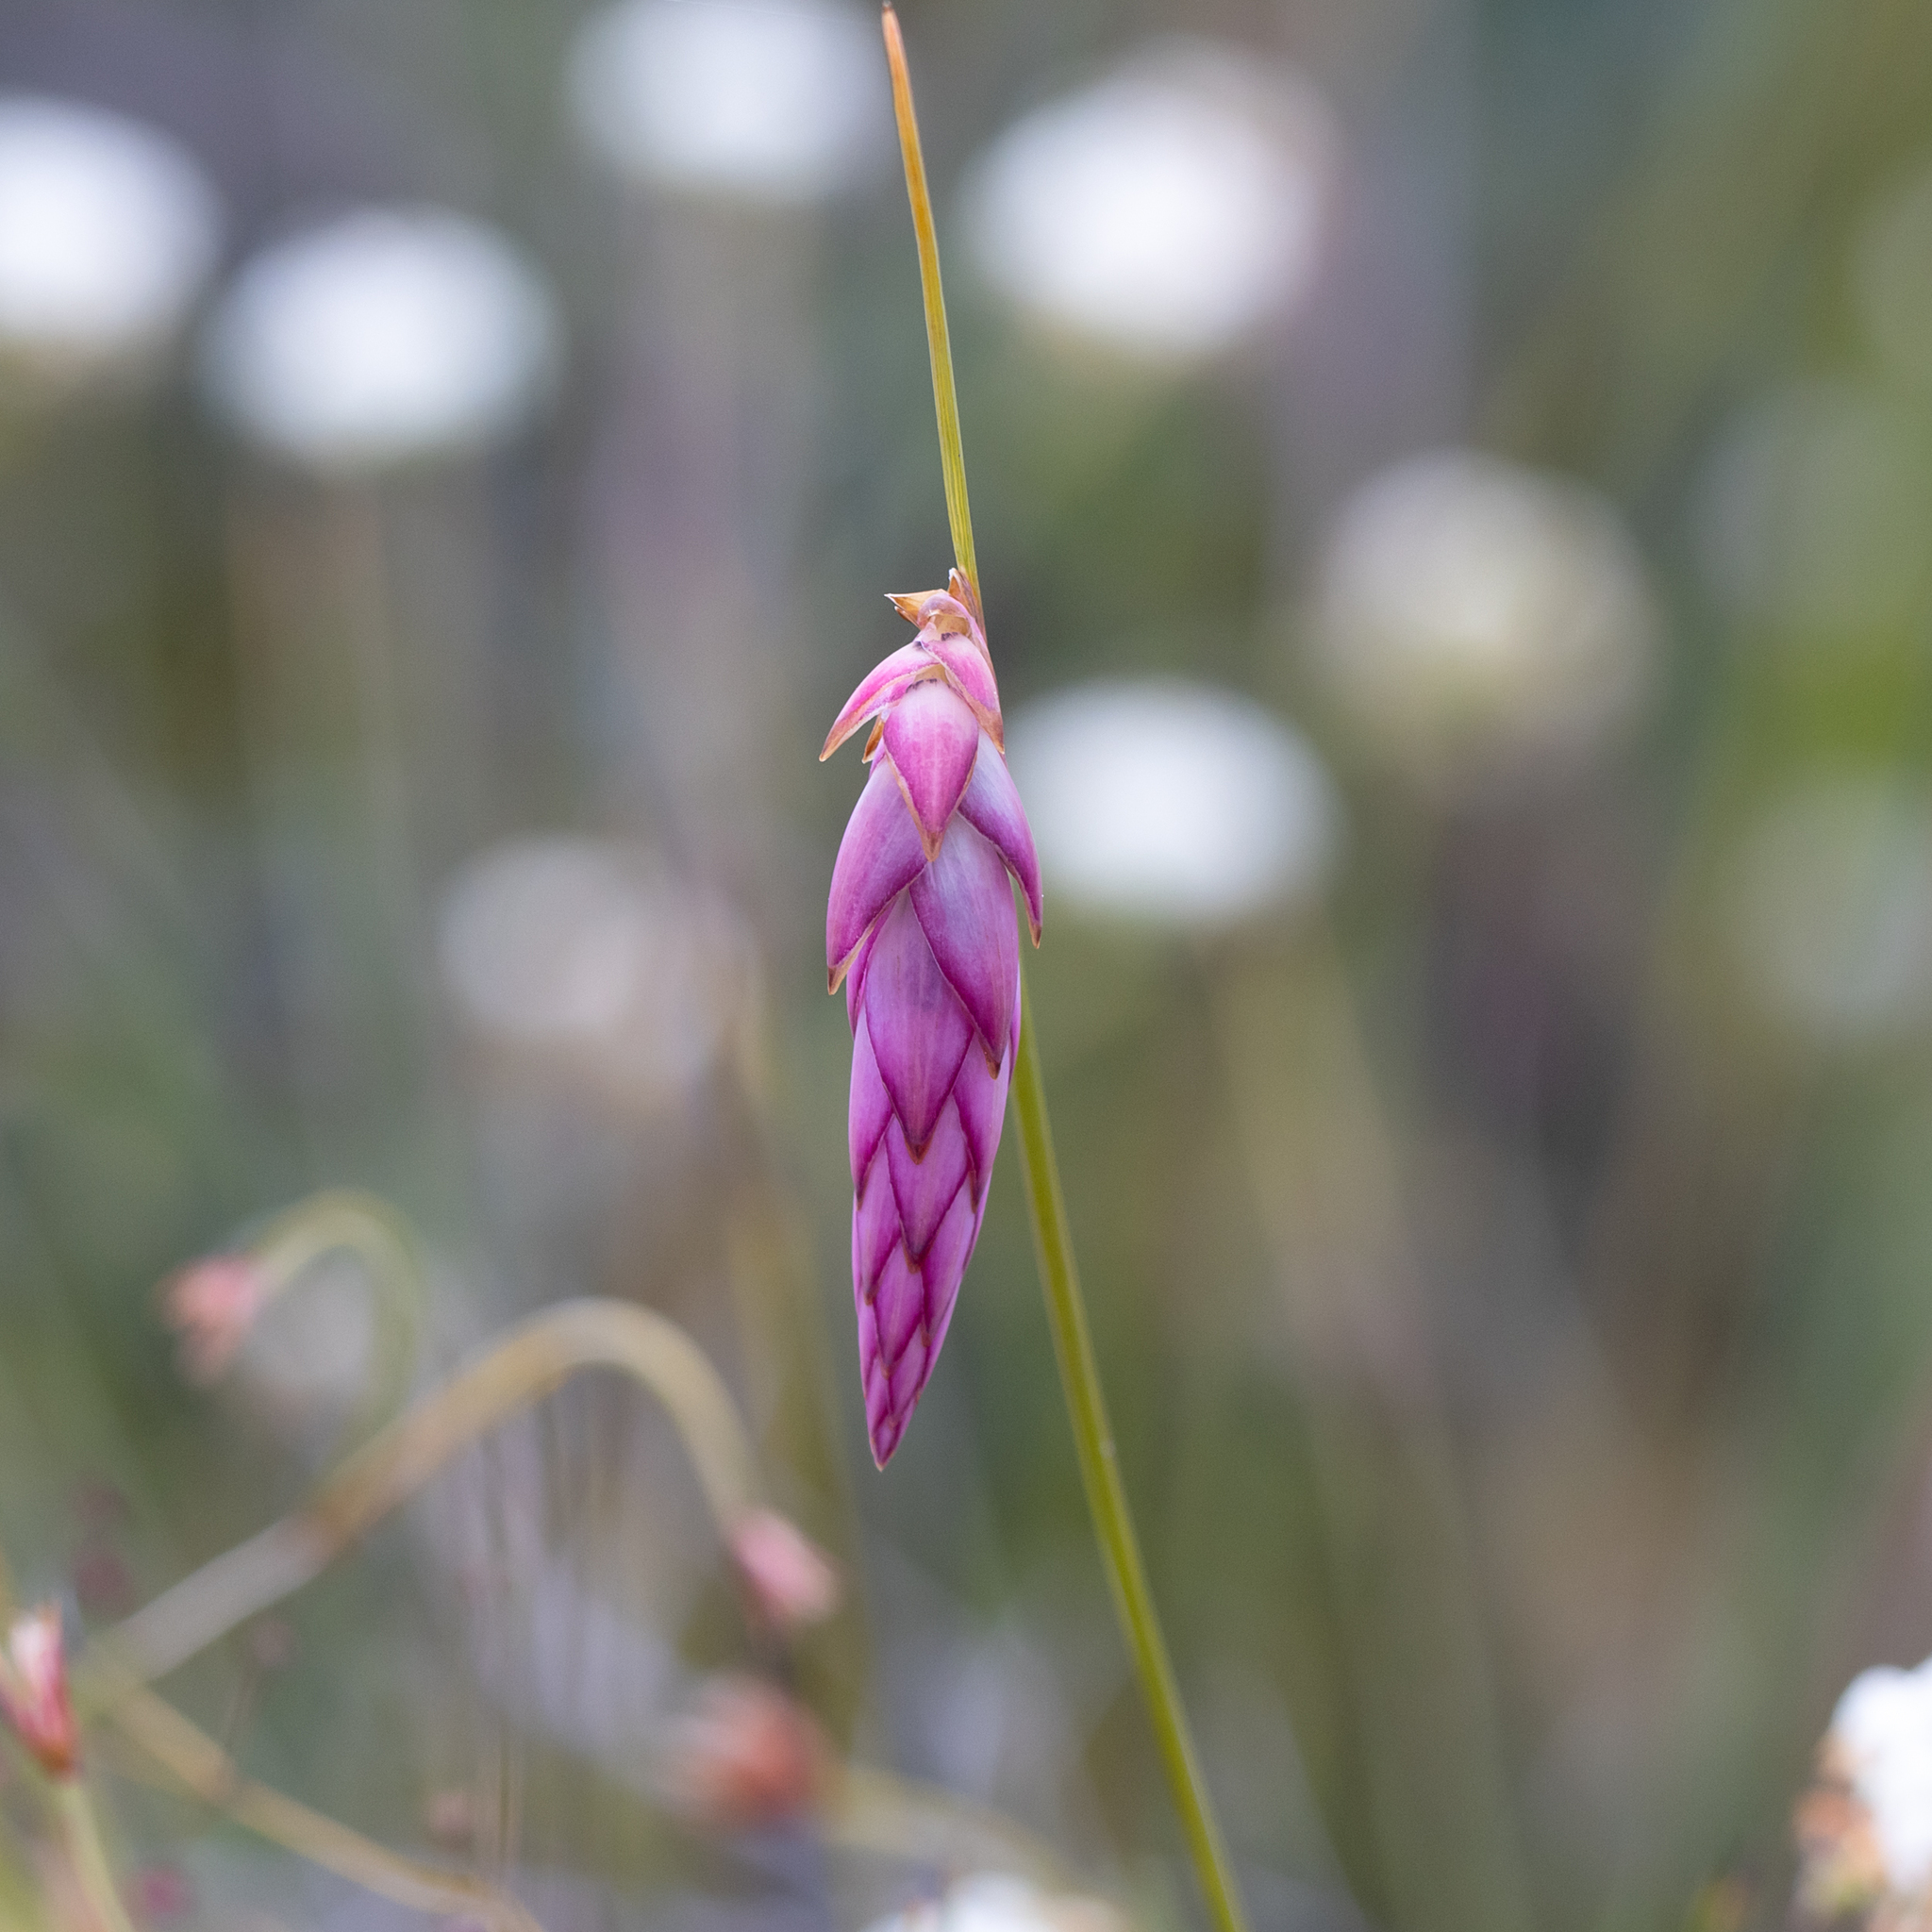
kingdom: Plantae
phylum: Tracheophyta
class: Liliopsida
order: Asparagales
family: Asphodelaceae
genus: Johnsonia
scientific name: Johnsonia teretifolia
